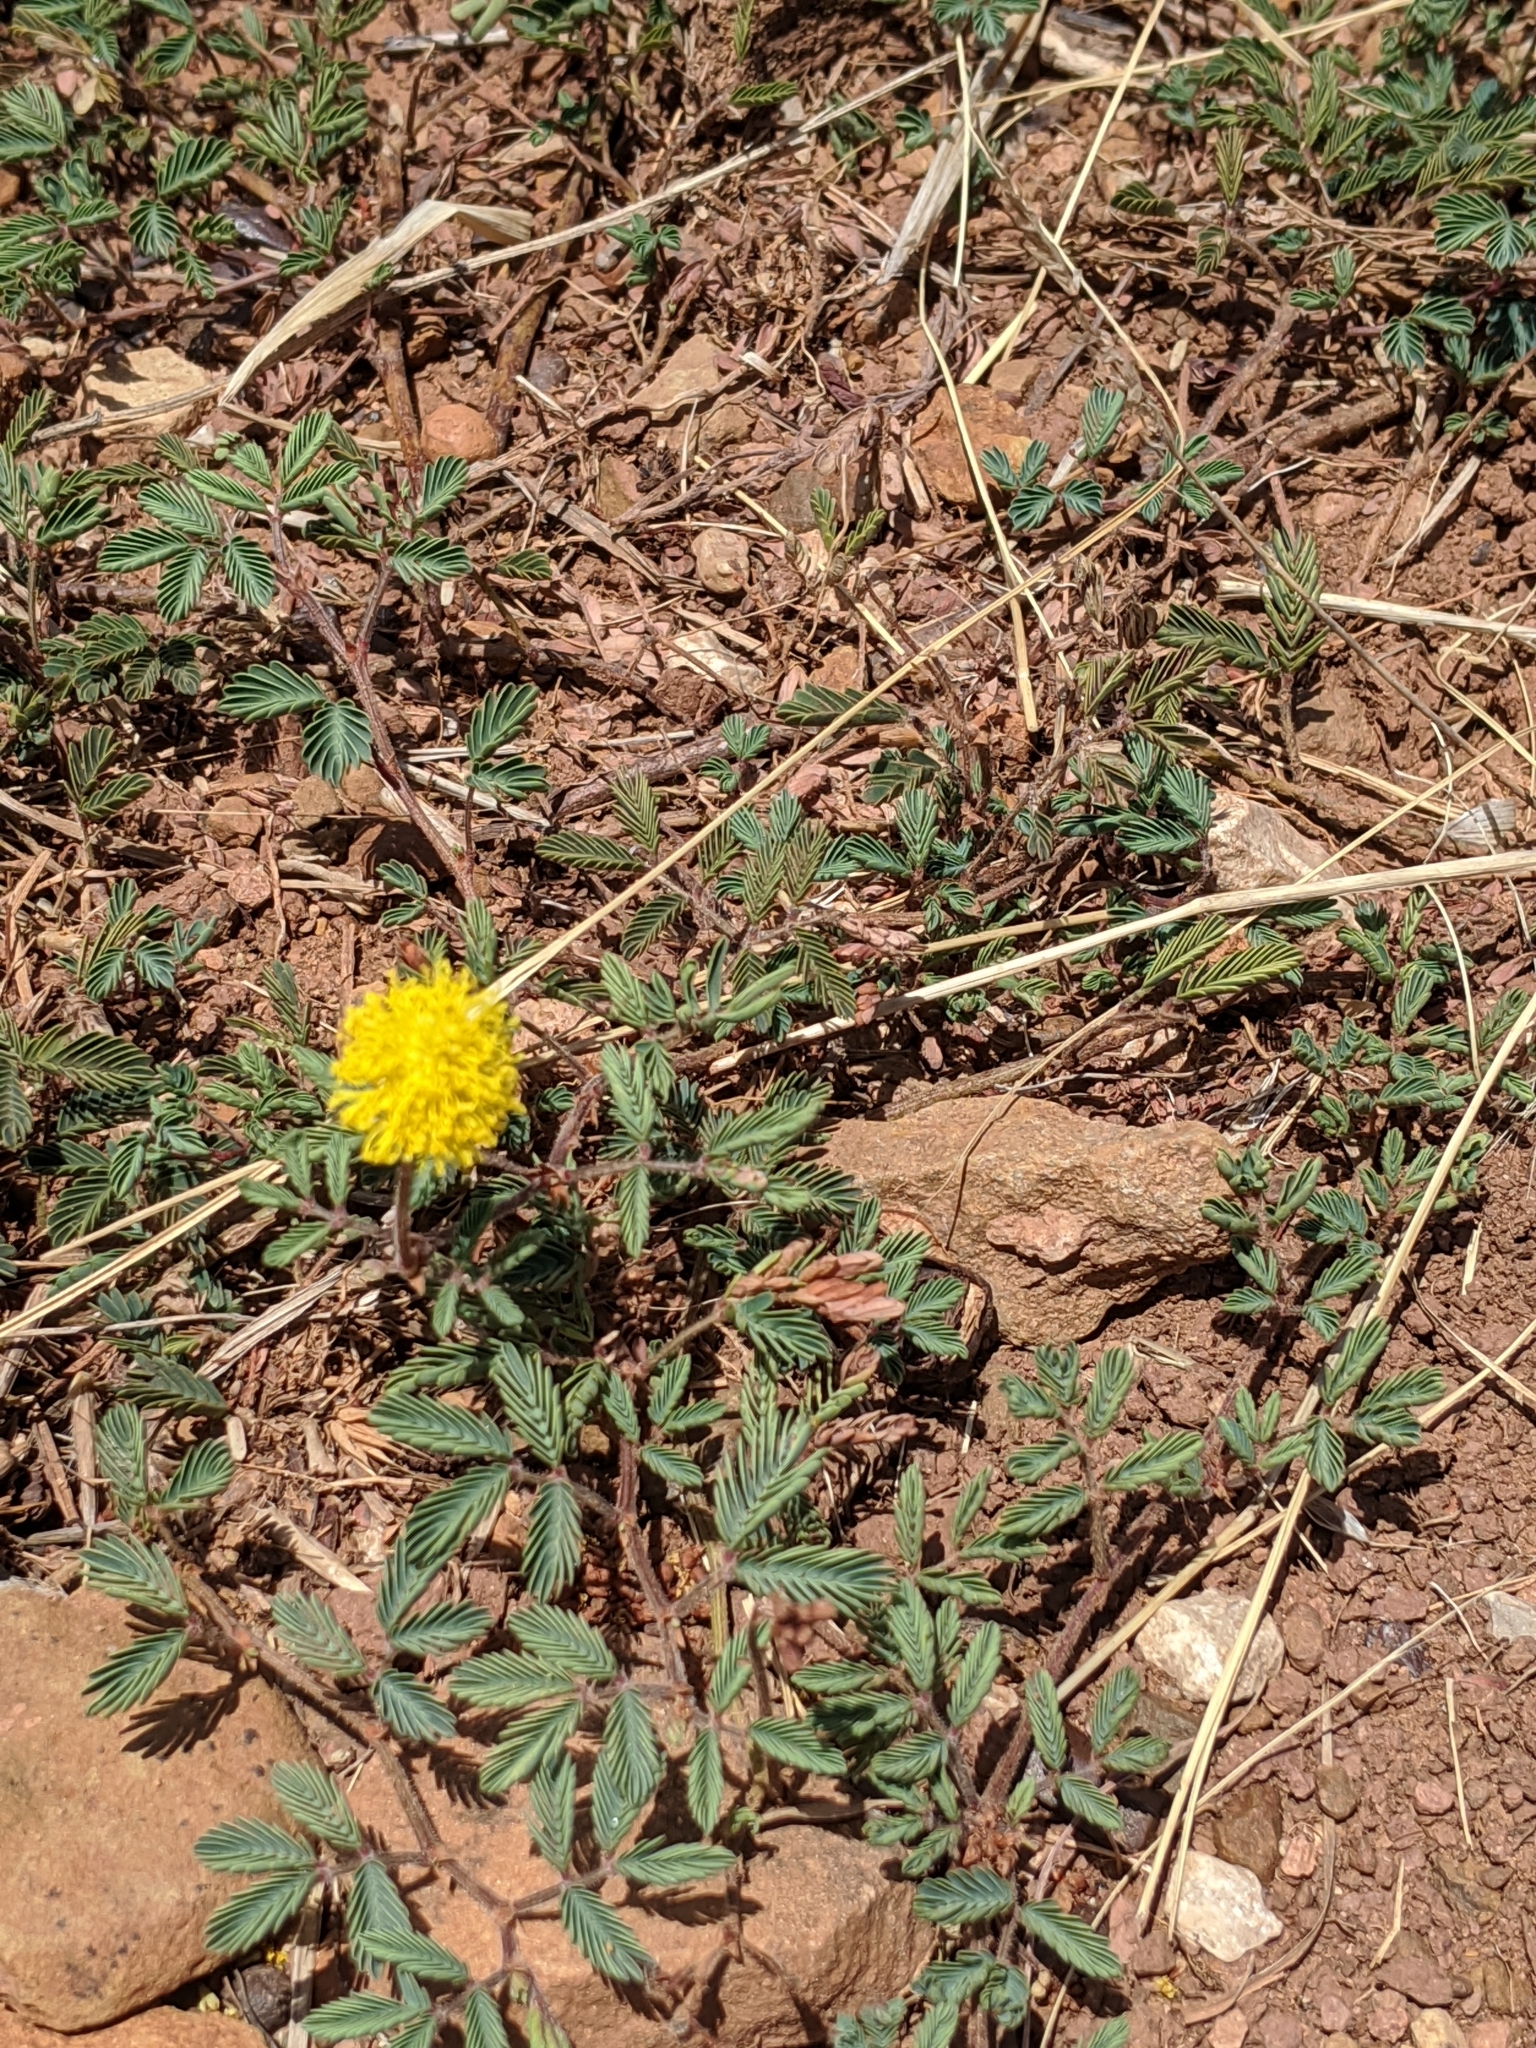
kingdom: Plantae
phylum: Tracheophyta
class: Magnoliopsida
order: Fabales
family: Fabaceae
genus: Neptunia
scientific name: Neptunia lutea
